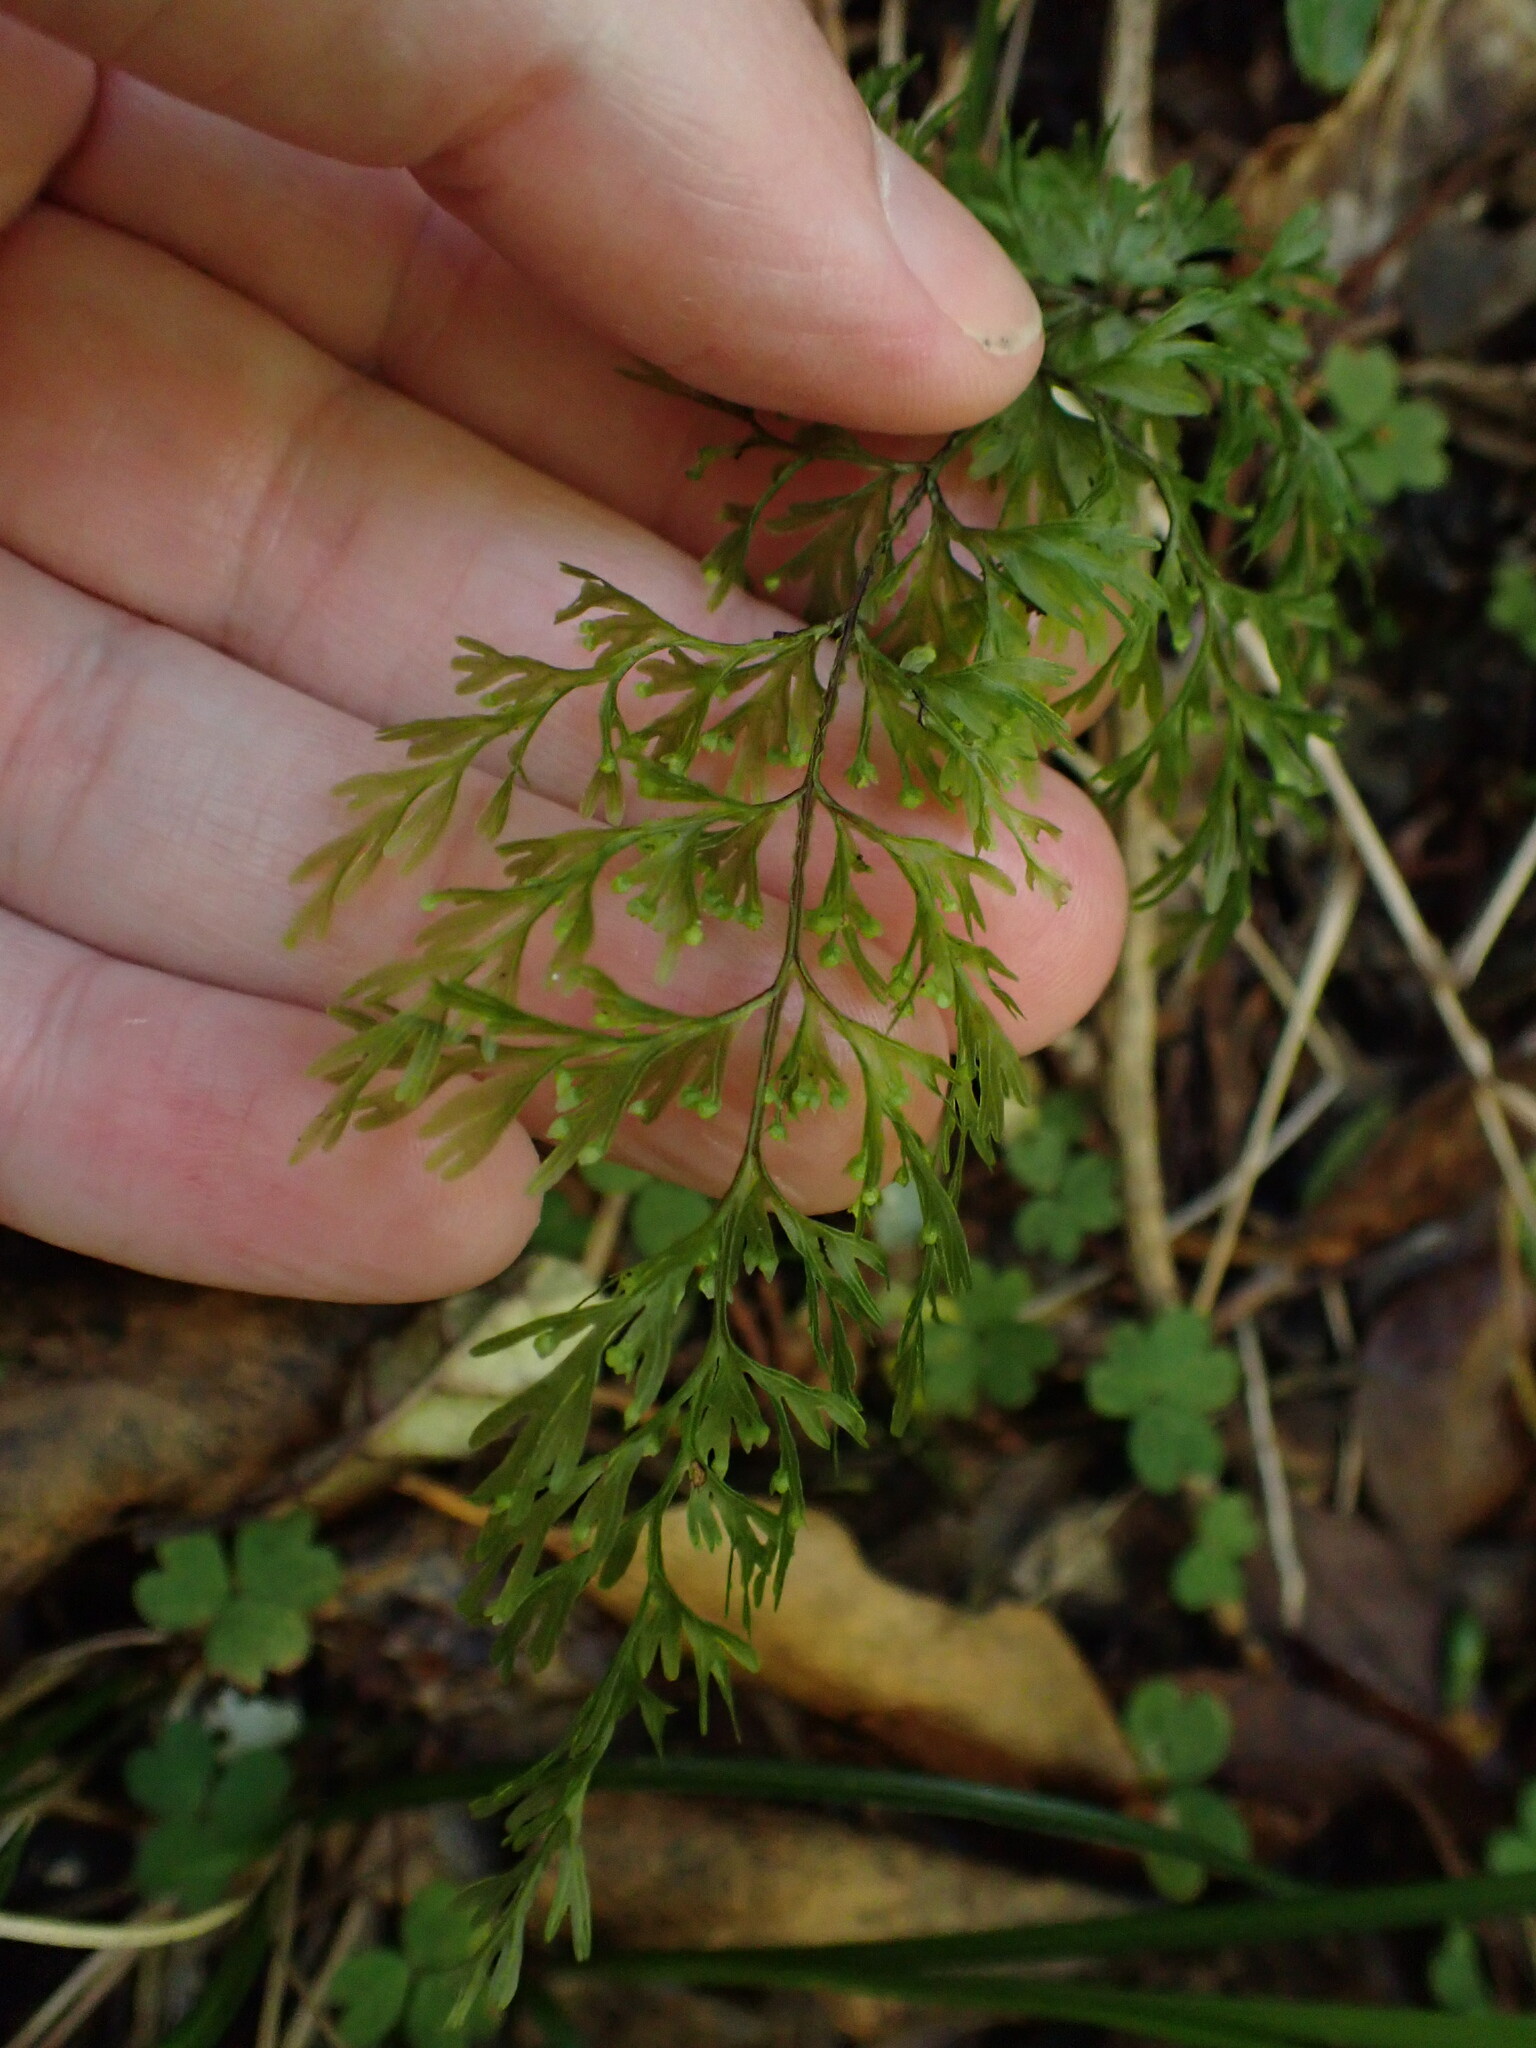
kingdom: Plantae
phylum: Tracheophyta
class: Polypodiopsida
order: Hymenophyllales
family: Hymenophyllaceae
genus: Hymenophyllum
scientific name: Hymenophyllum demissum
